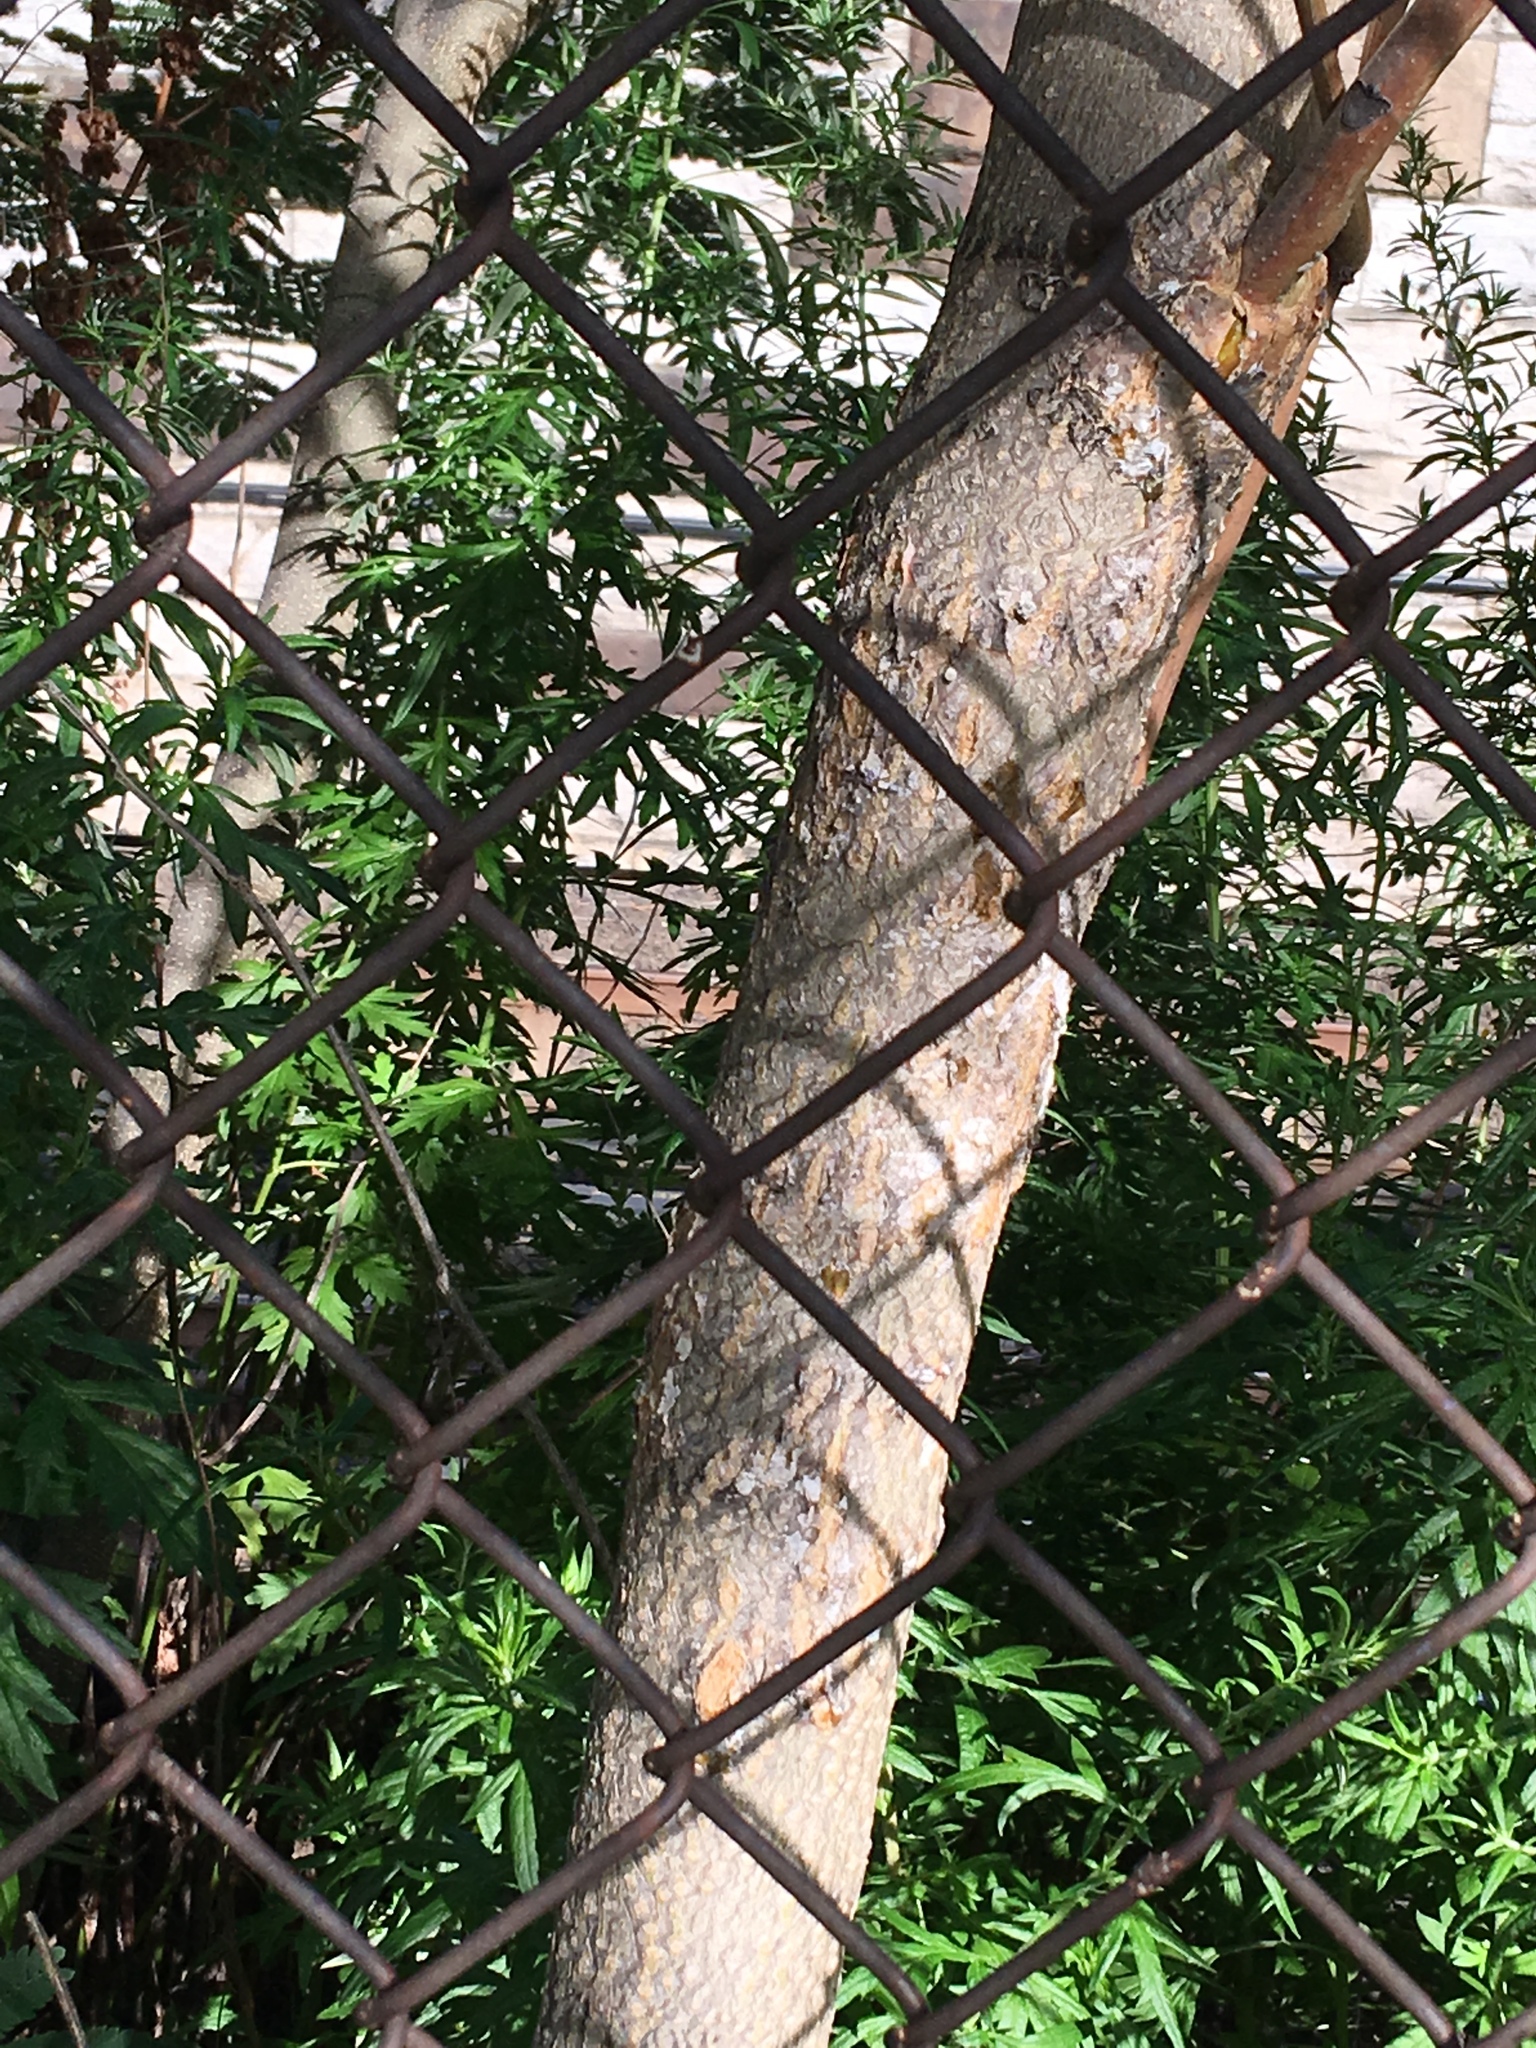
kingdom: Plantae
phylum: Tracheophyta
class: Magnoliopsida
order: Sapindales
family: Simaroubaceae
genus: Ailanthus
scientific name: Ailanthus altissima
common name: Tree-of-heaven
